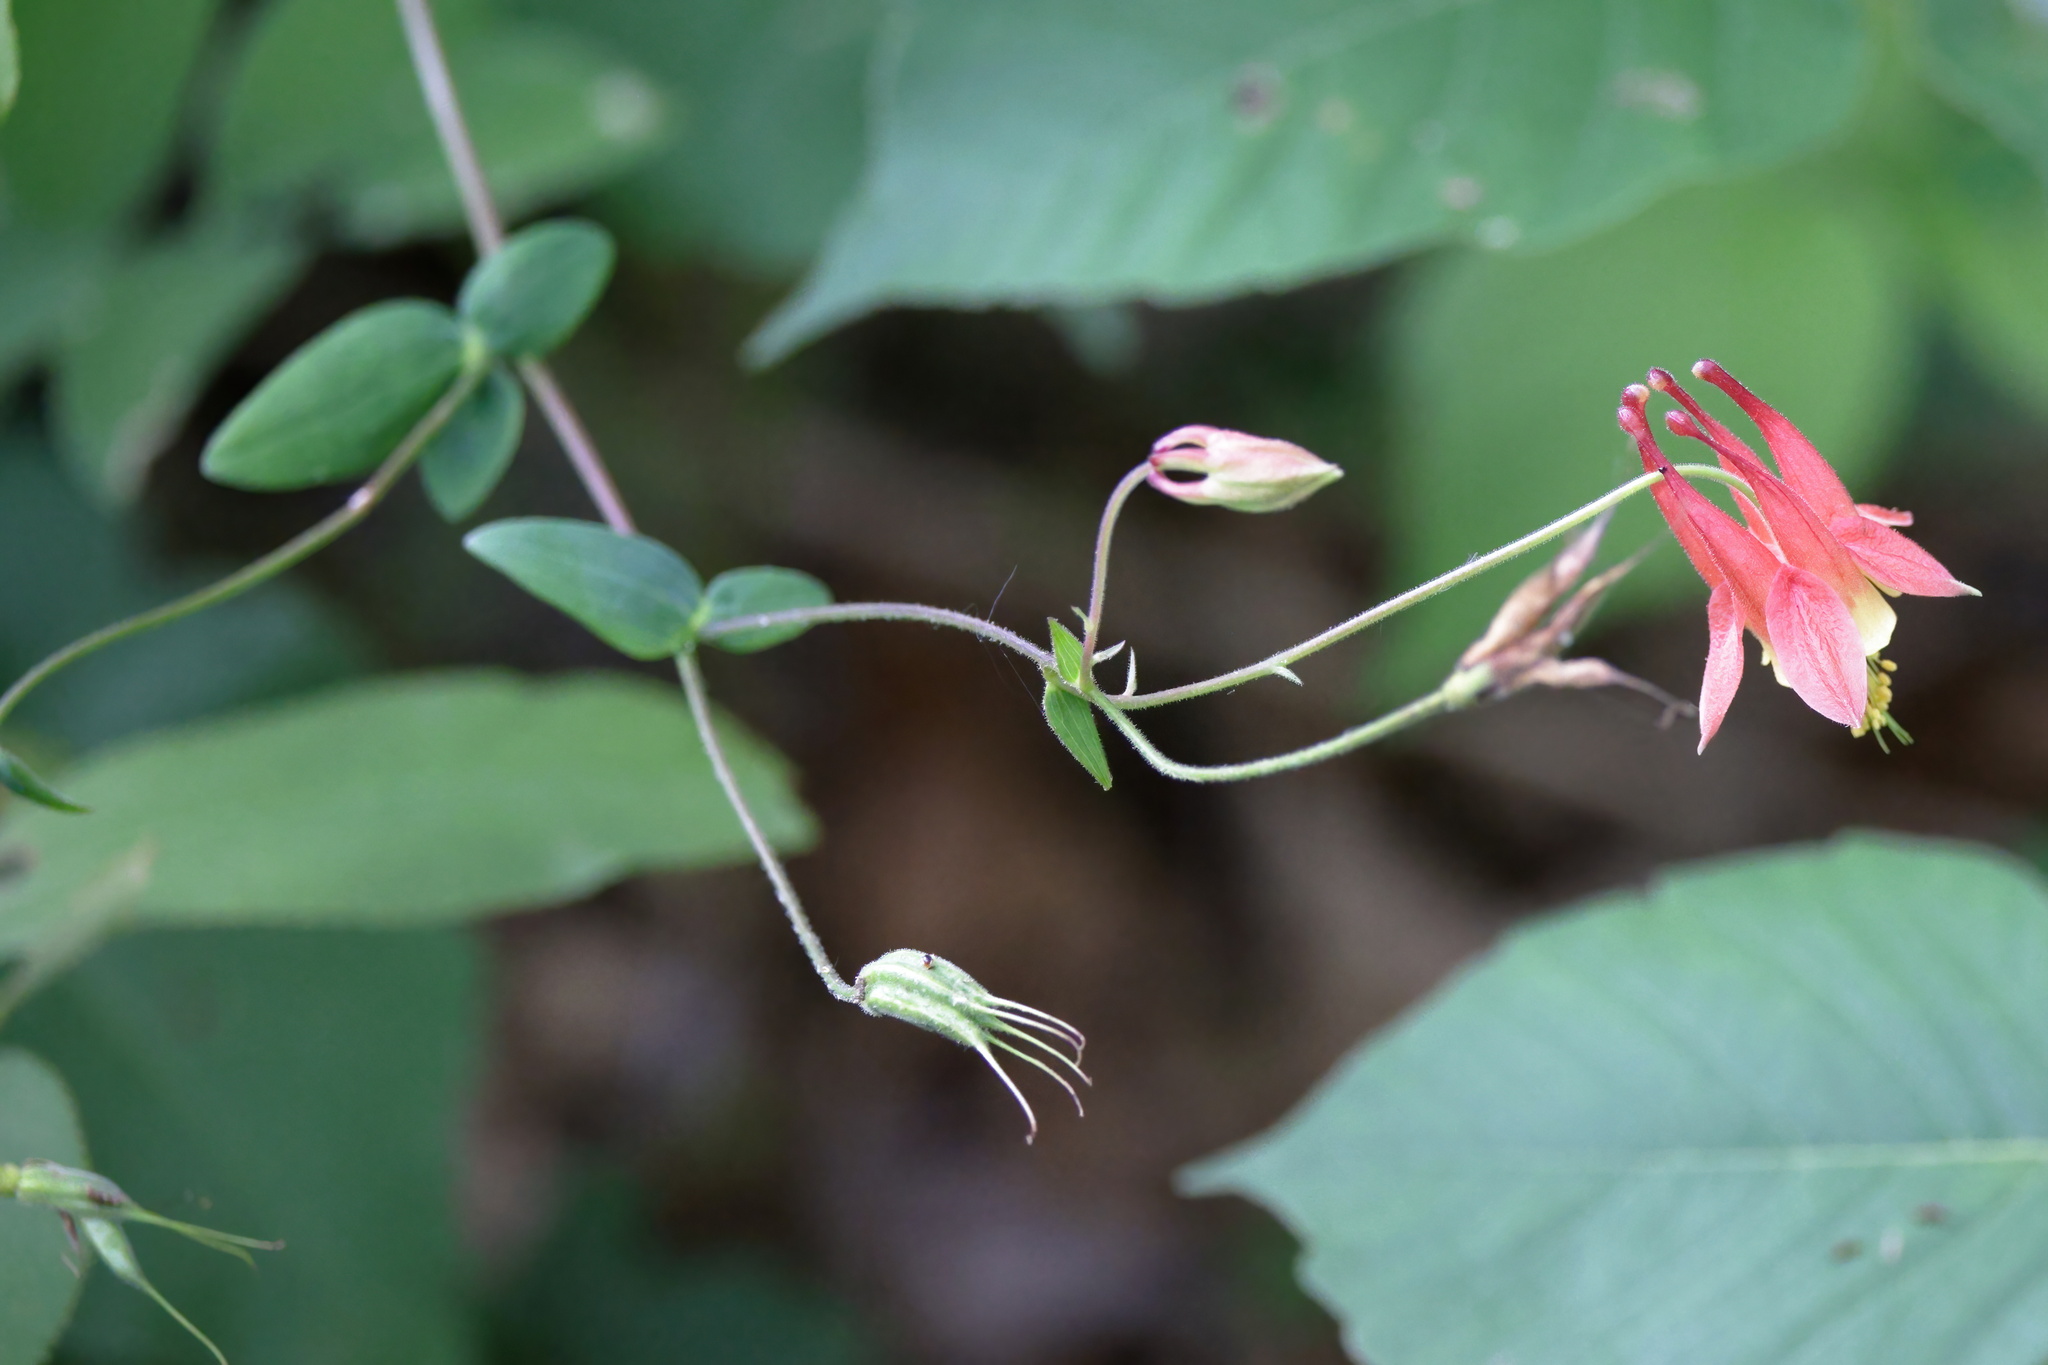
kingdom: Plantae
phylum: Tracheophyta
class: Magnoliopsida
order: Ranunculales
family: Ranunculaceae
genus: Aquilegia
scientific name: Aquilegia canadensis
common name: American columbine
